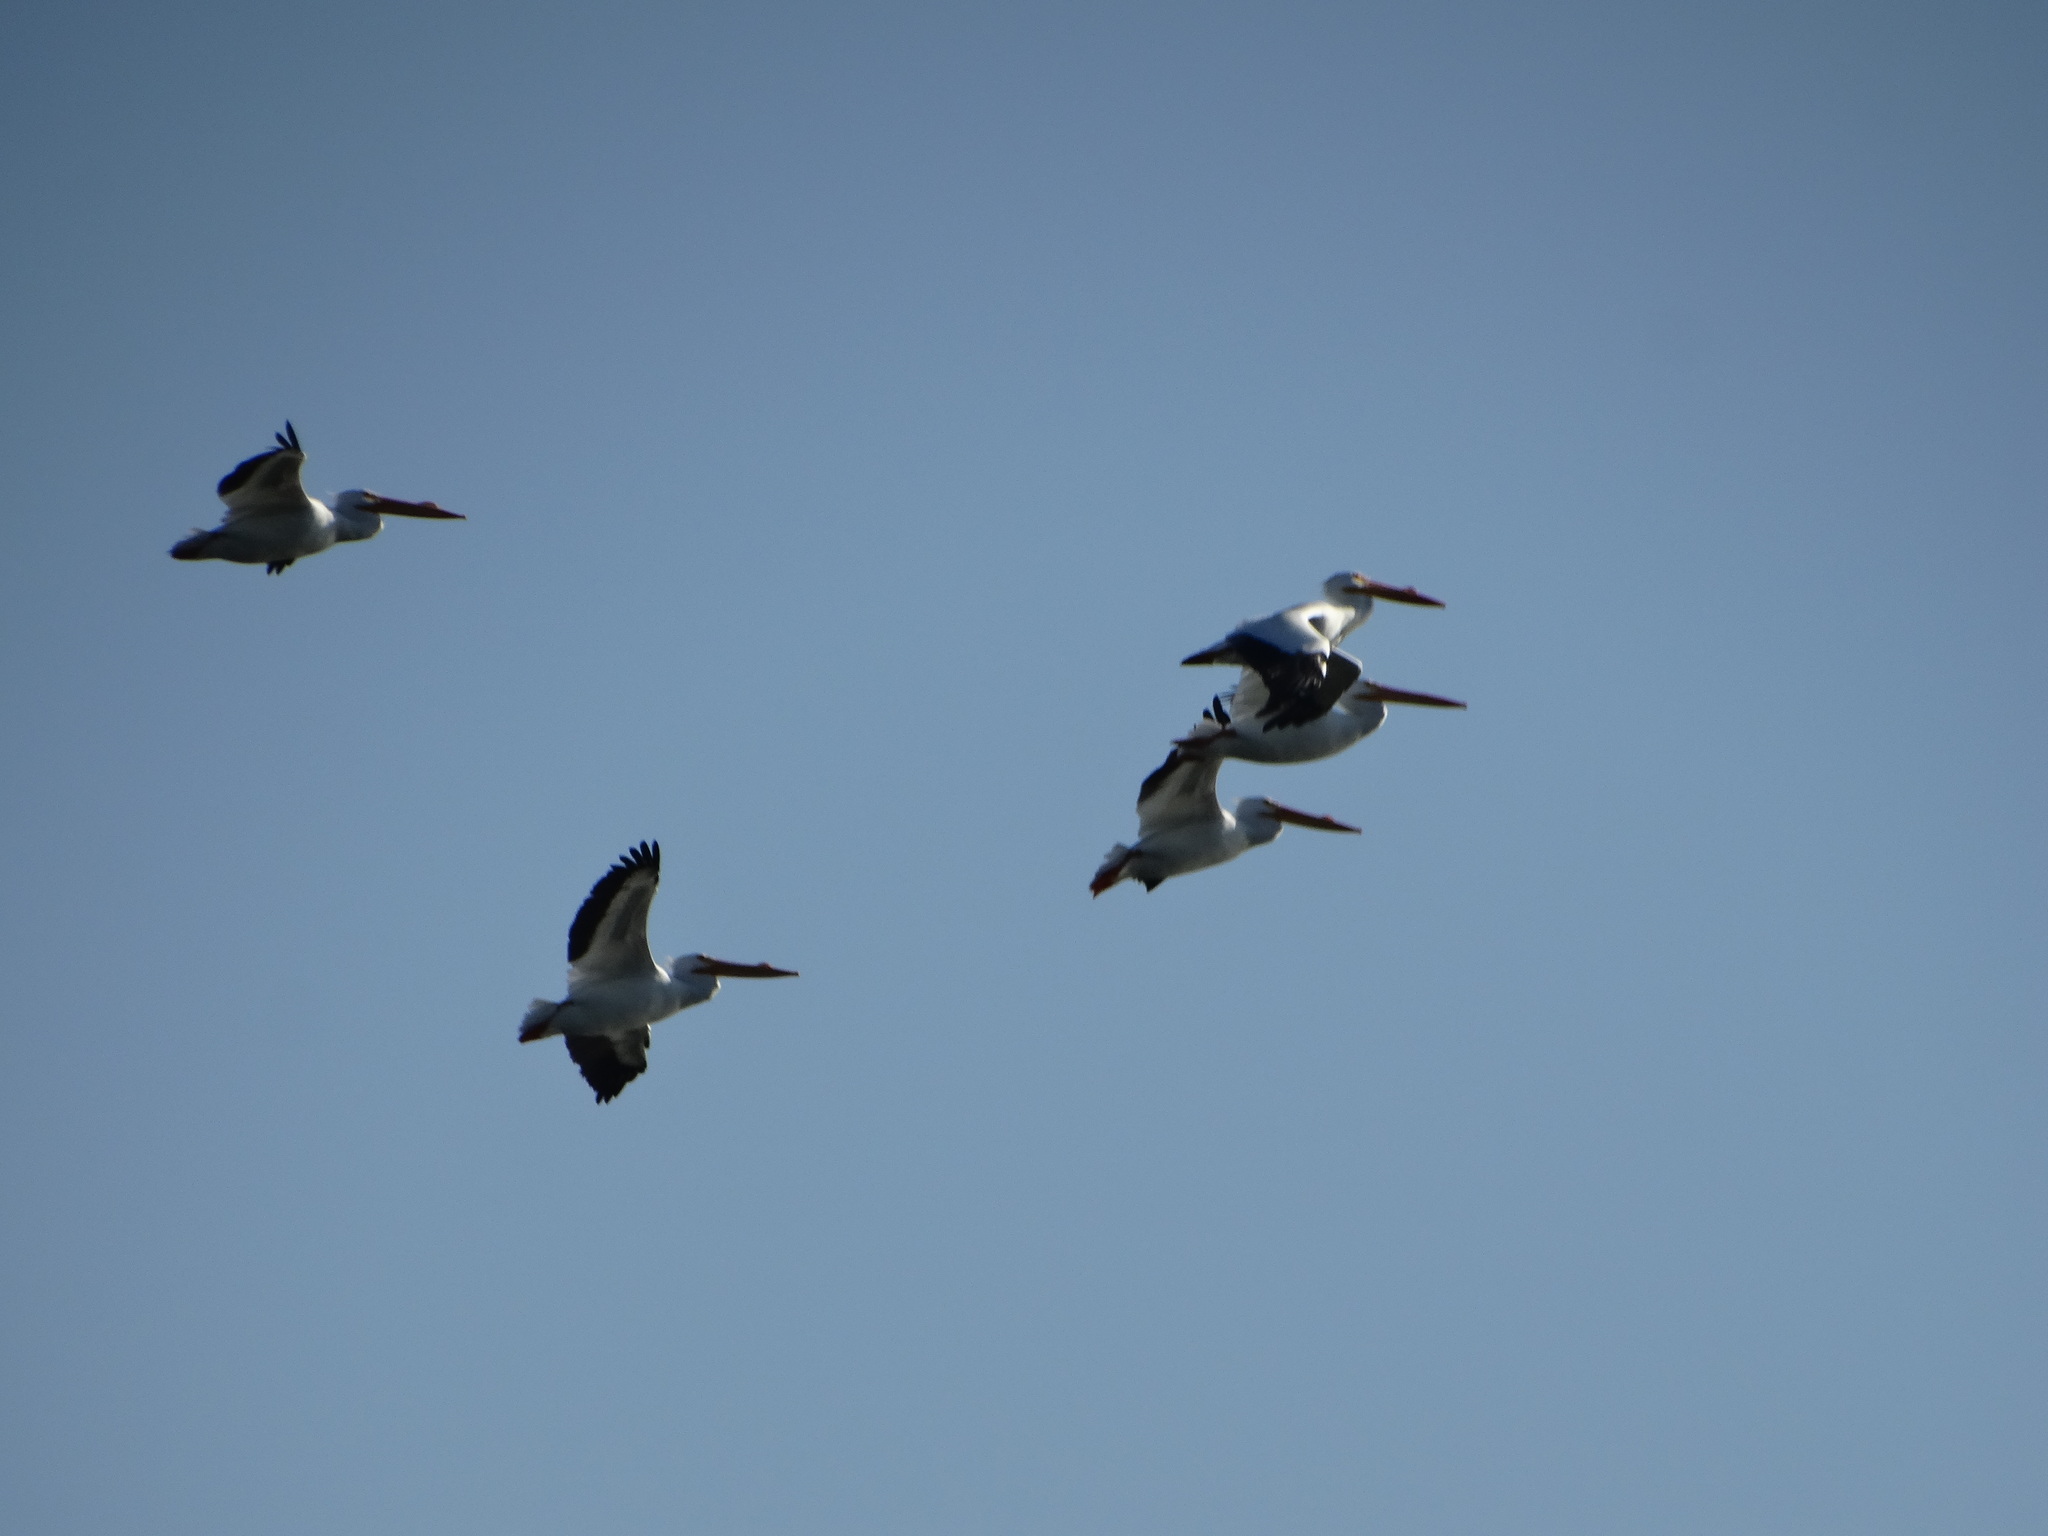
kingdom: Animalia
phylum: Chordata
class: Aves
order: Pelecaniformes
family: Pelecanidae
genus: Pelecanus
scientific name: Pelecanus erythrorhynchos
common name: American white pelican
